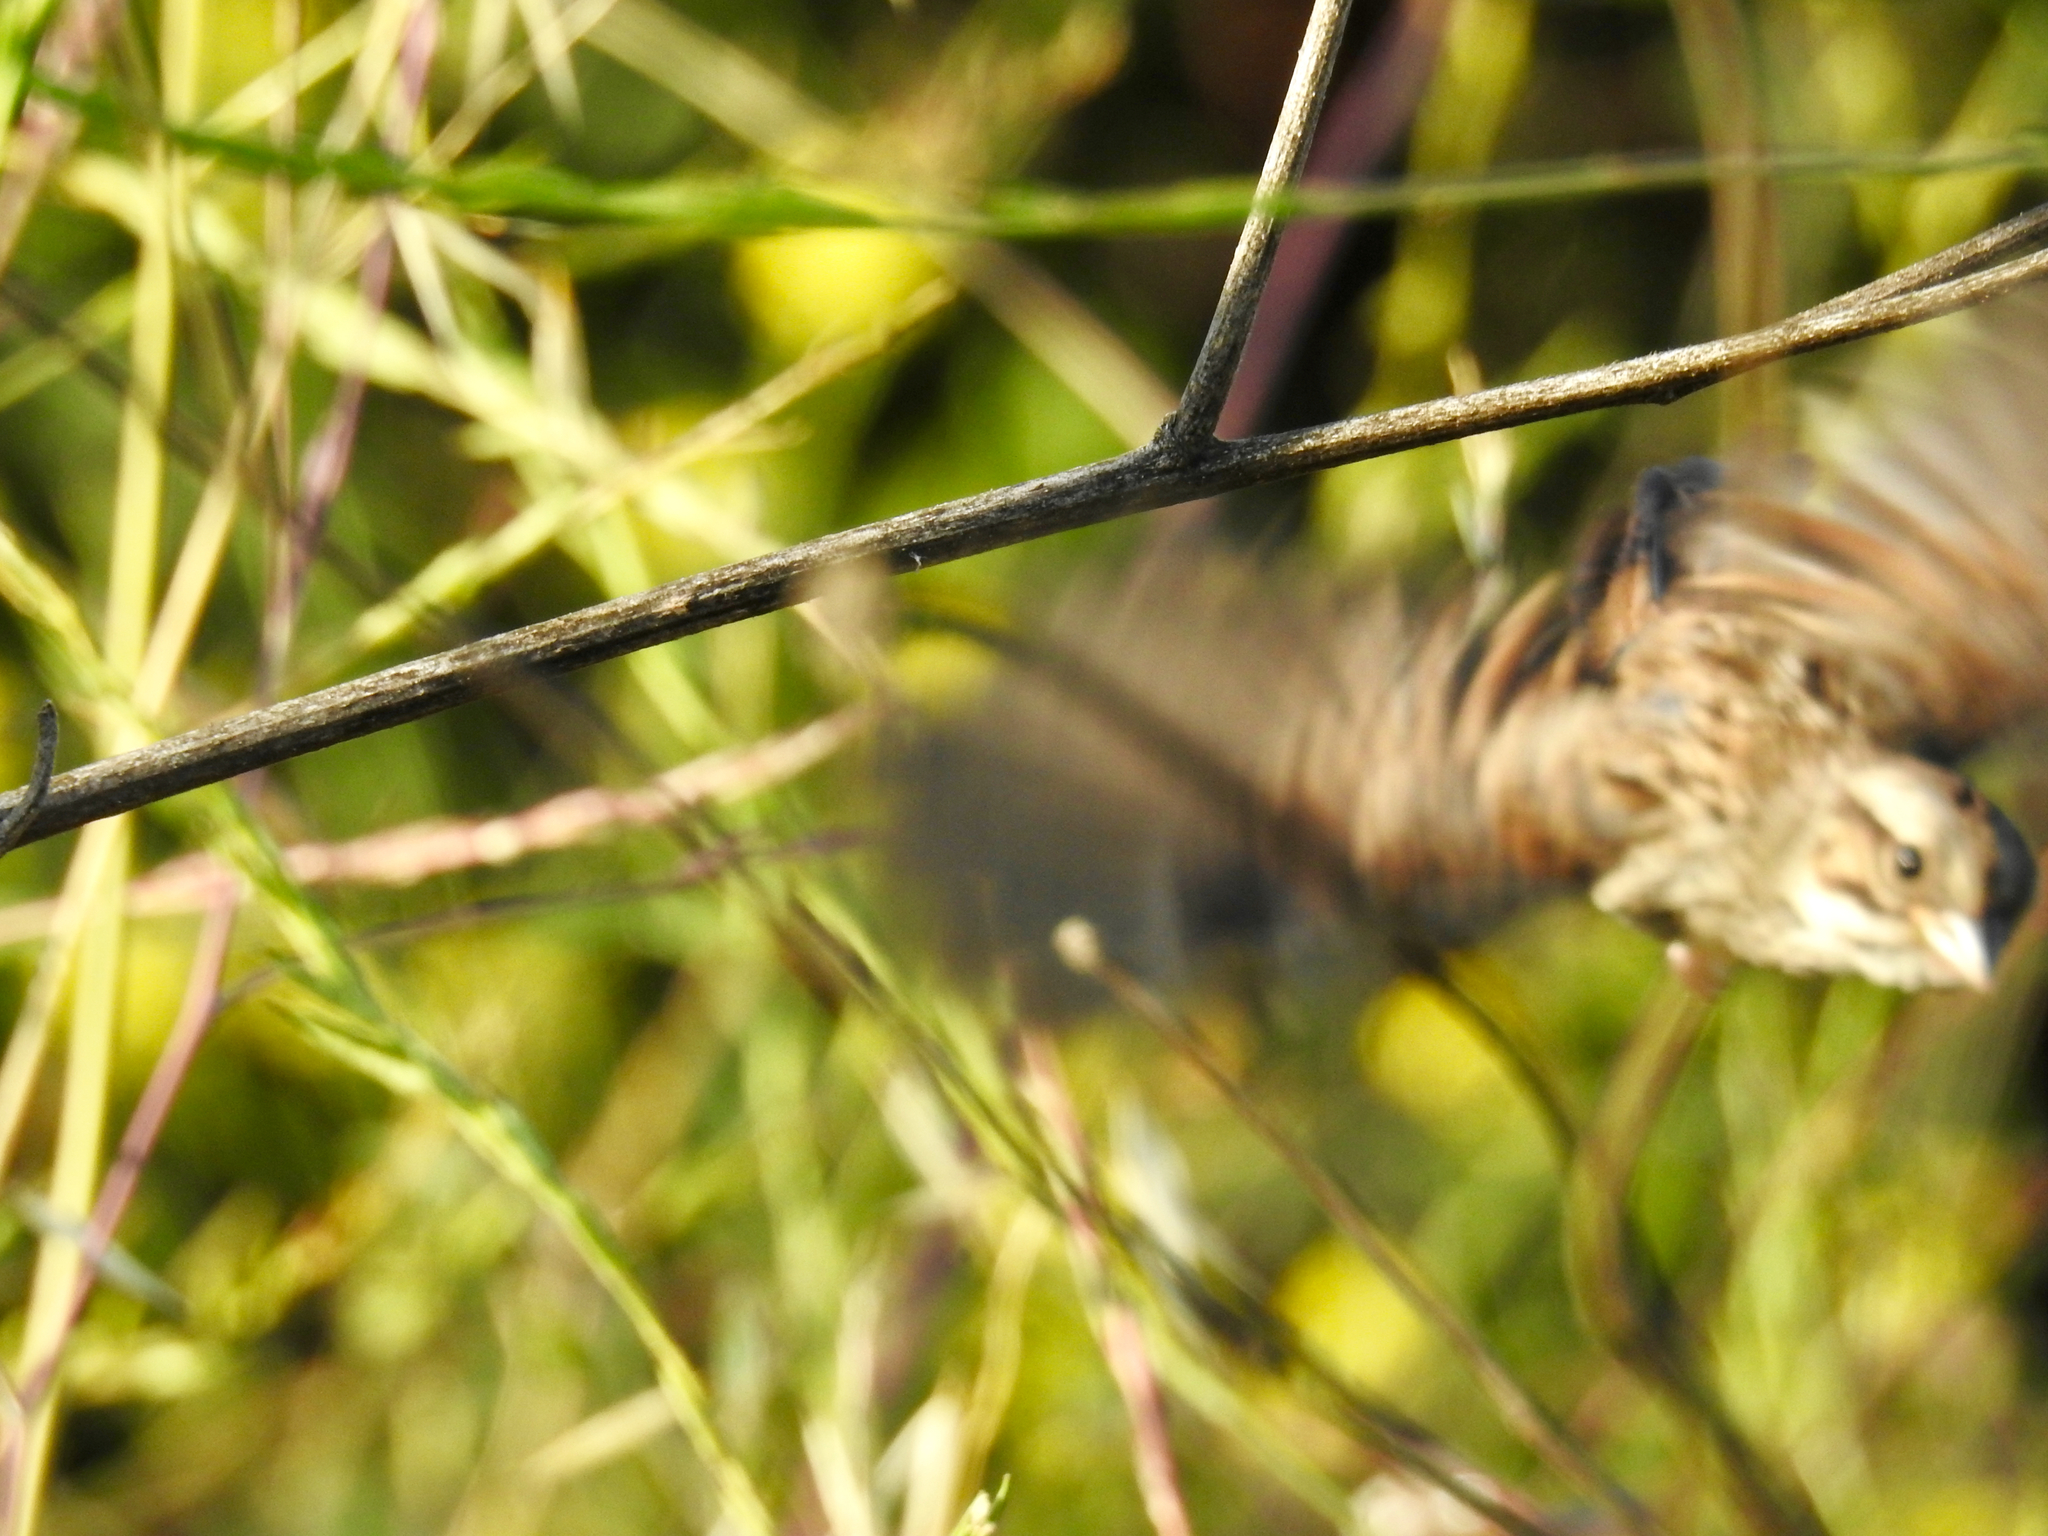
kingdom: Animalia
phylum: Chordata
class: Aves
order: Passeriformes
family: Passerellidae
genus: Melospiza
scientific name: Melospiza melodia
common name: Song sparrow
